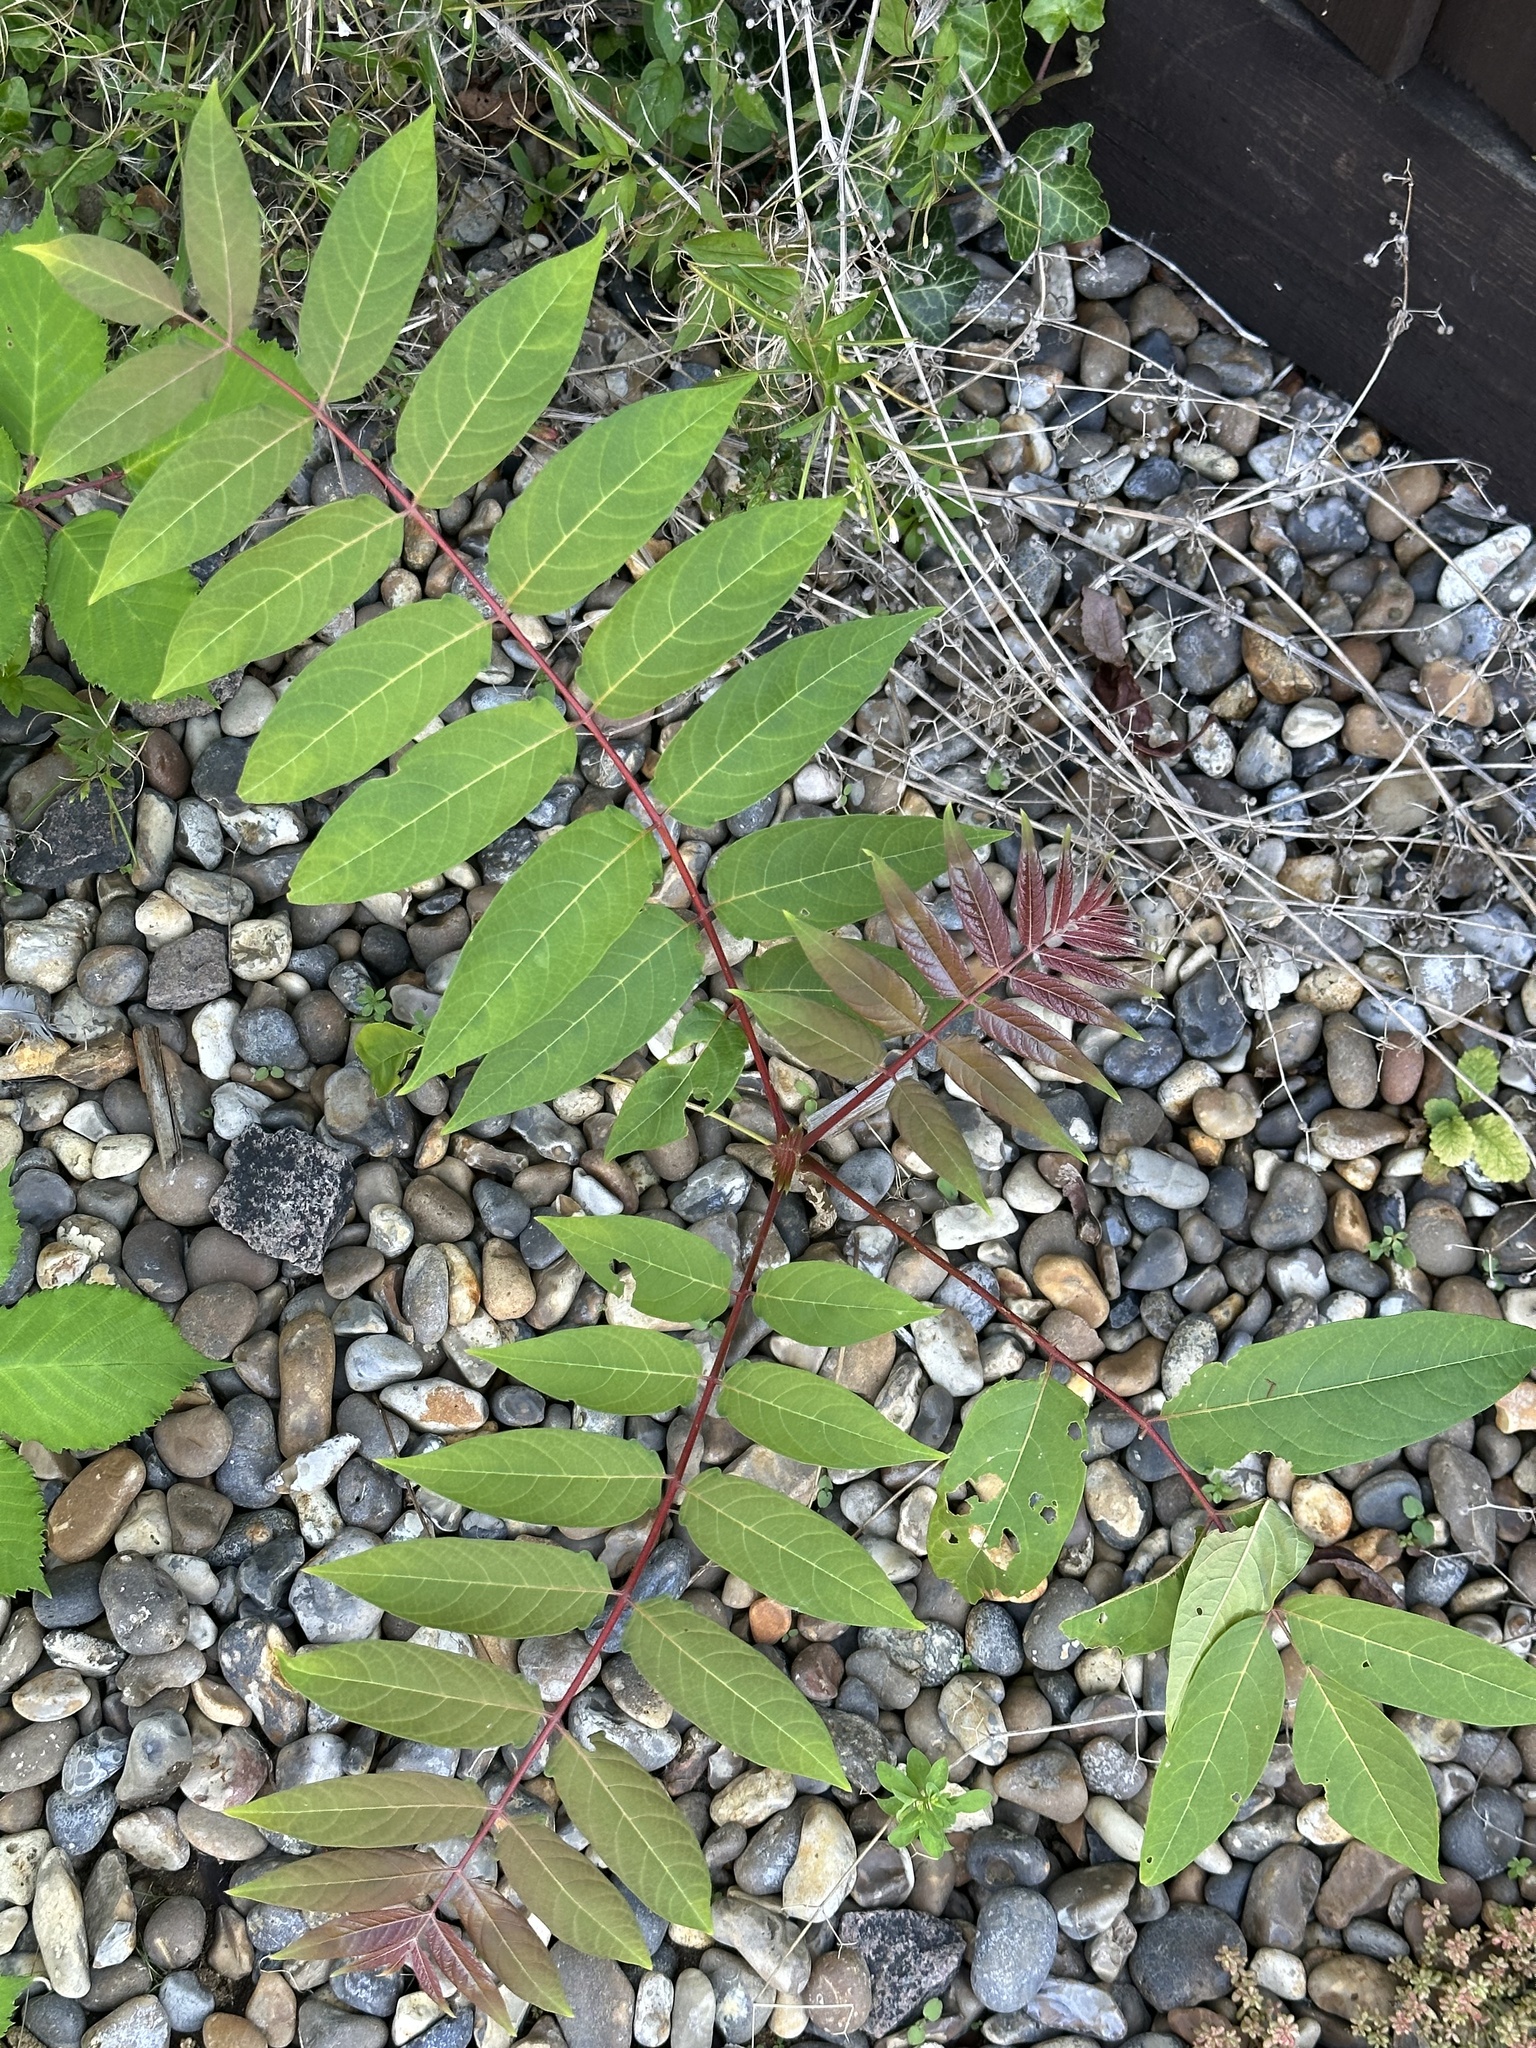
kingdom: Plantae
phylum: Tracheophyta
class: Magnoliopsida
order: Sapindales
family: Simaroubaceae
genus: Ailanthus
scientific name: Ailanthus altissima
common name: Tree-of-heaven
